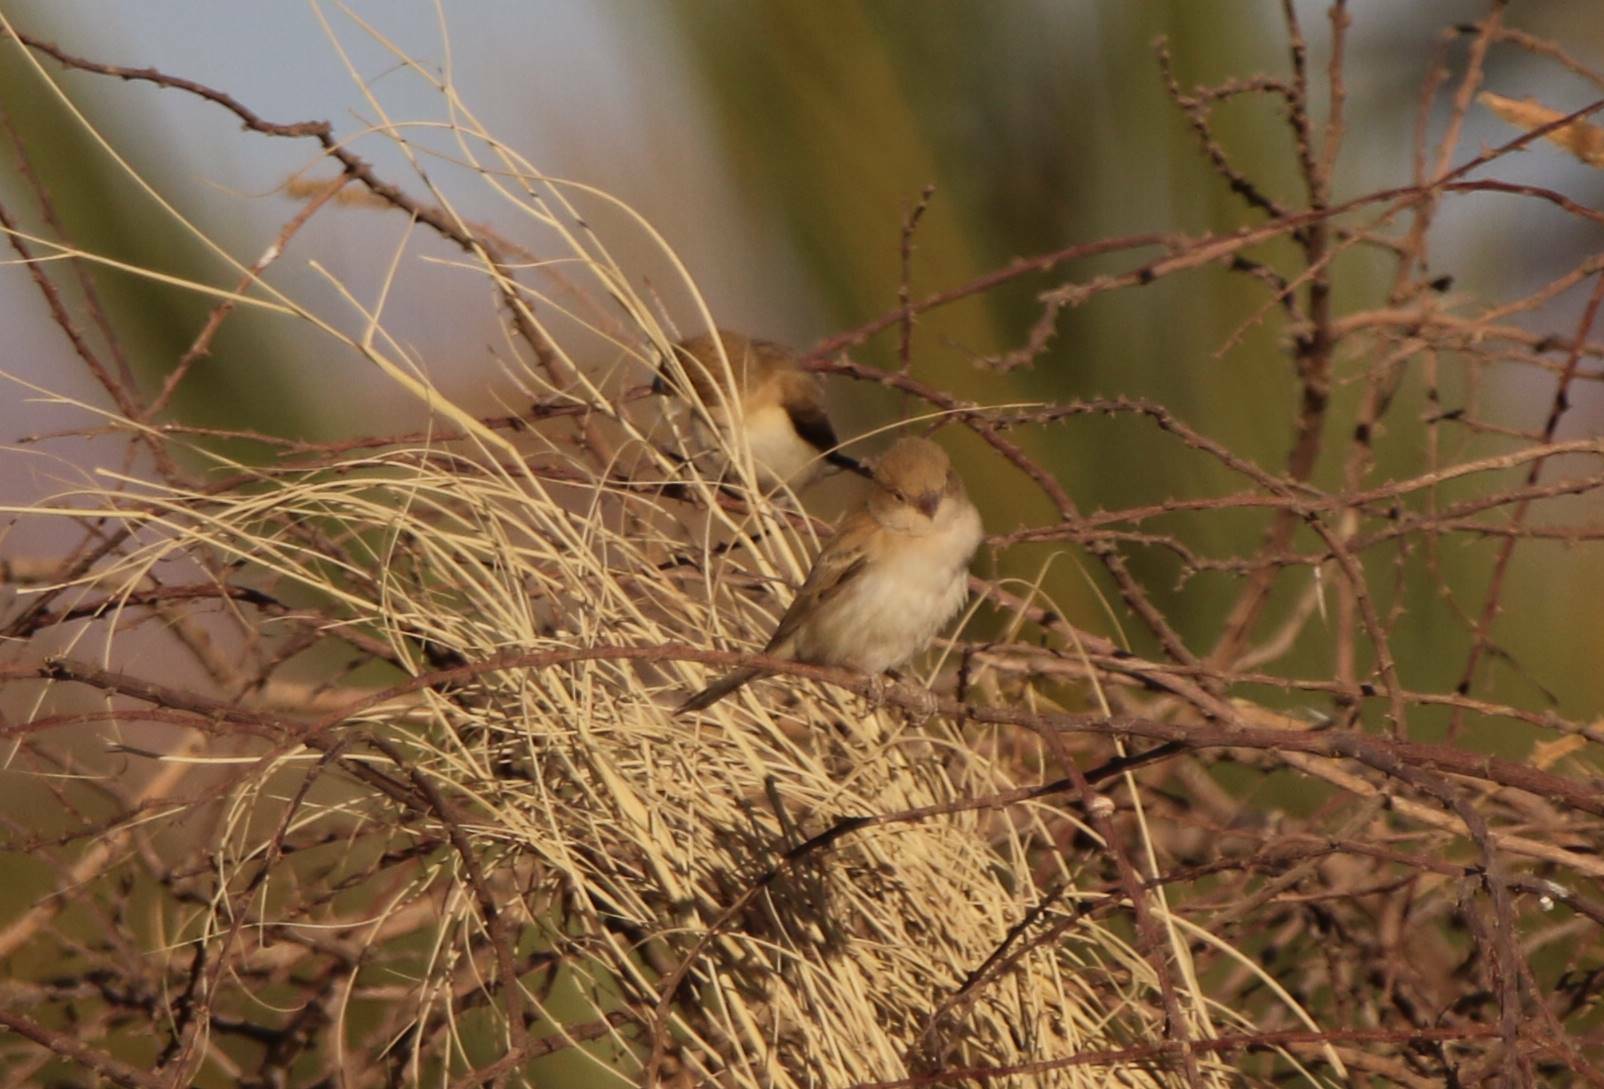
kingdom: Animalia
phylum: Chordata
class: Aves
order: Passeriformes
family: Estrildidae
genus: Euodice
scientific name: Euodice cantans
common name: African silverbill
